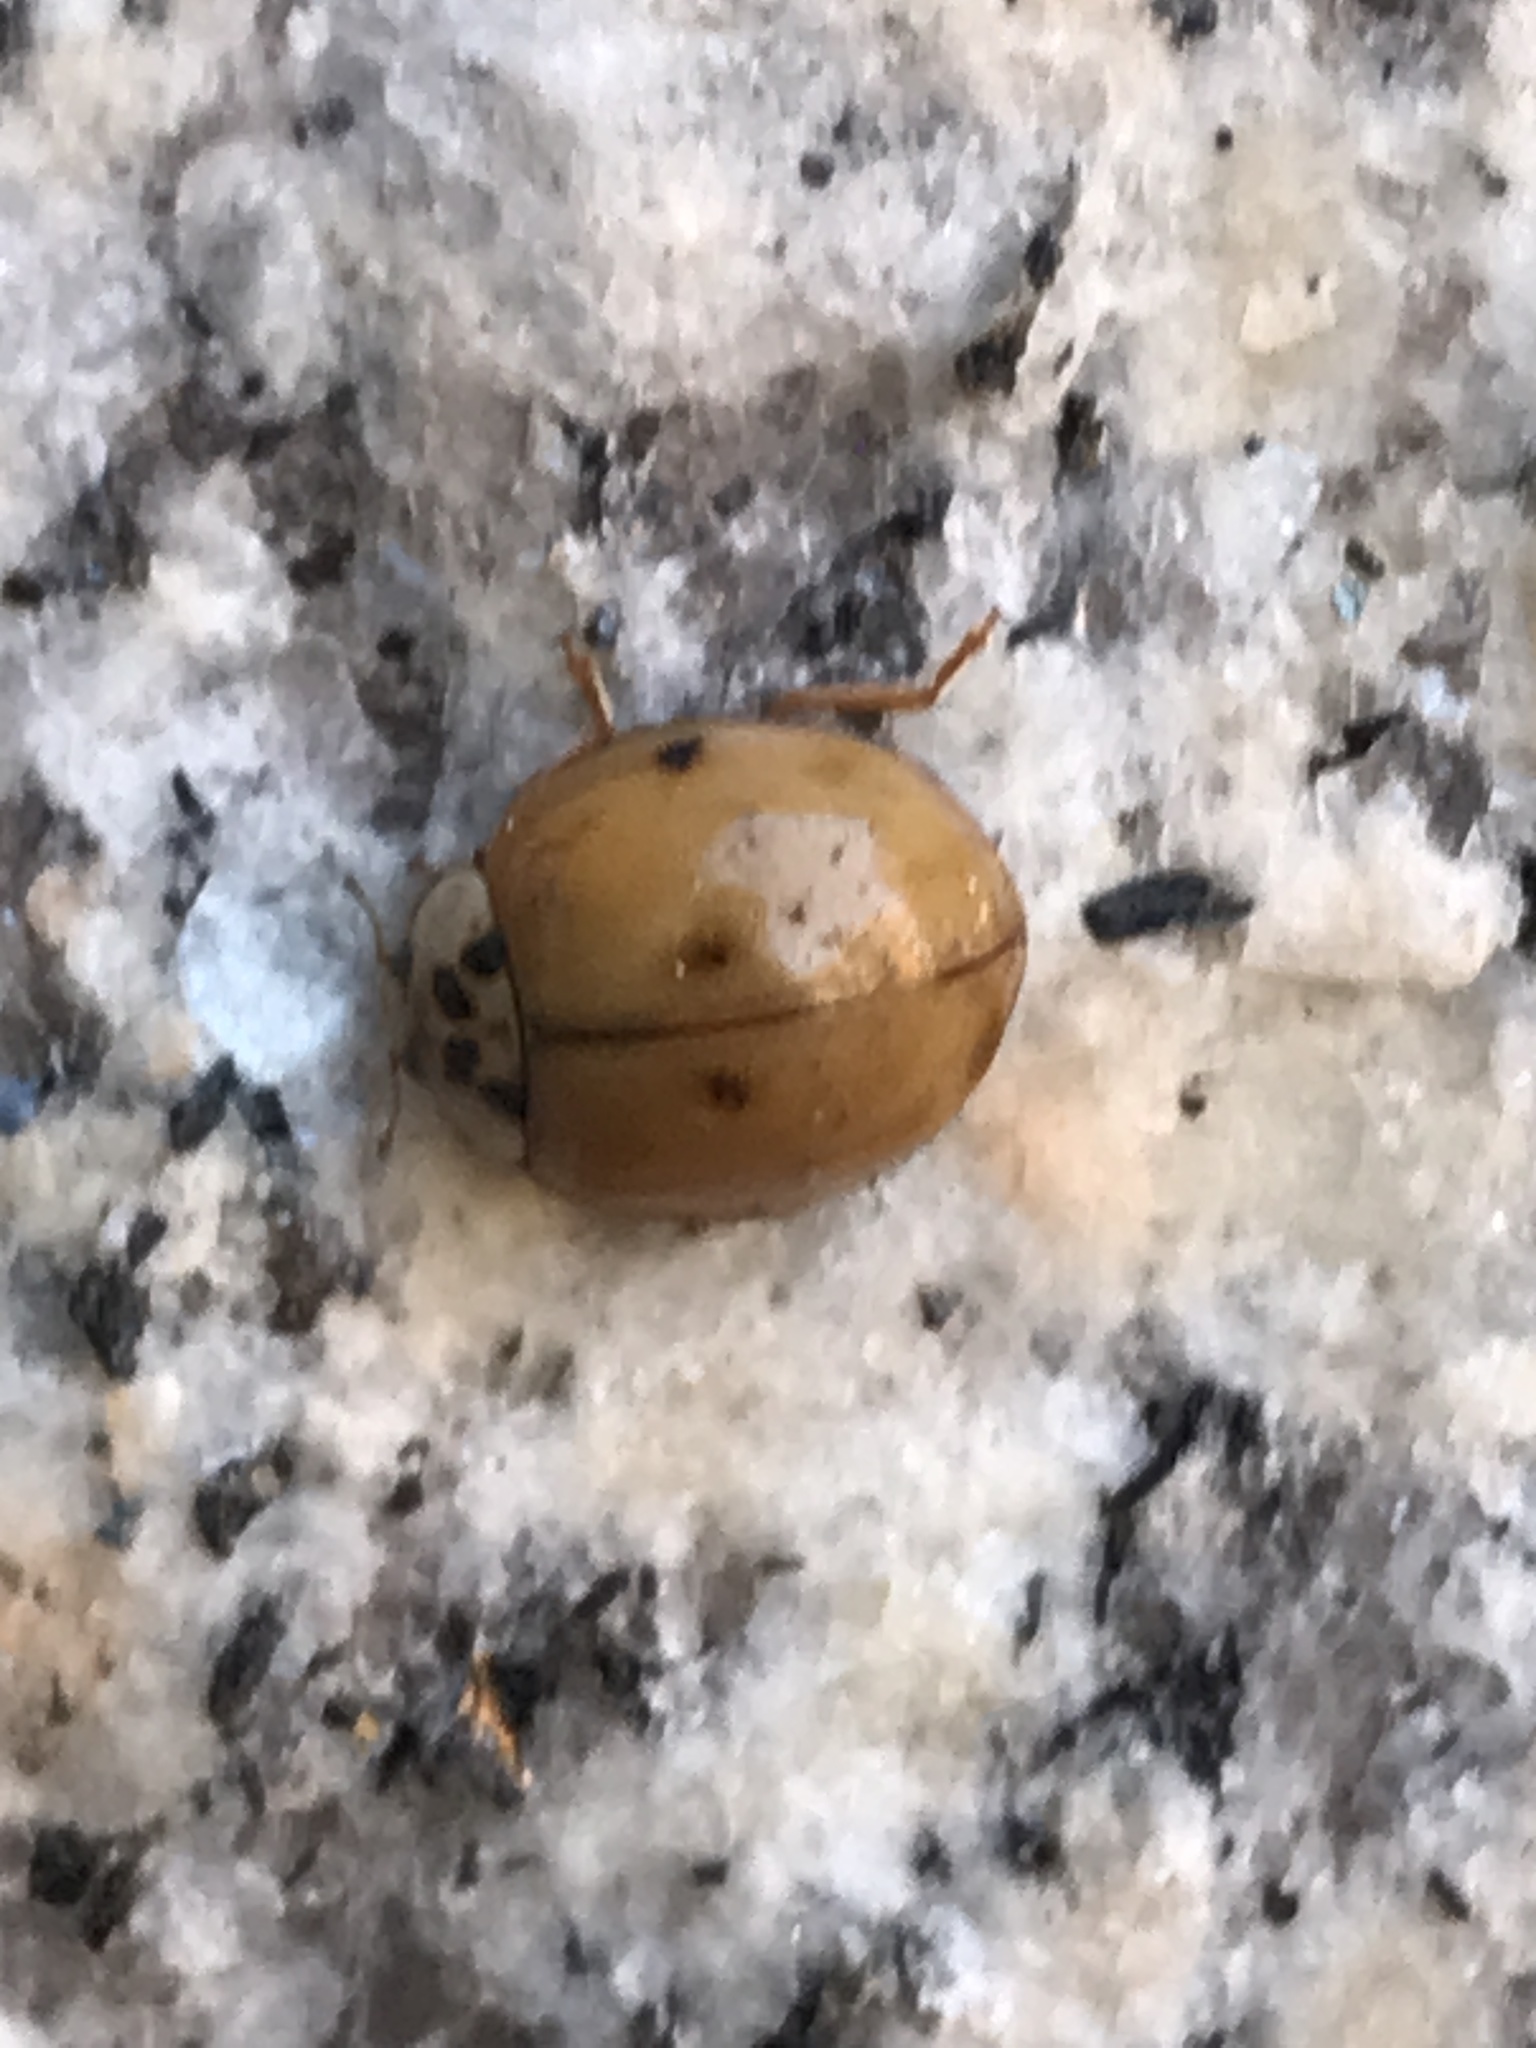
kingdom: Animalia
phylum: Arthropoda
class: Insecta
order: Coleoptera
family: Coccinellidae
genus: Harmonia
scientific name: Harmonia axyridis
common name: Harlequin ladybird
